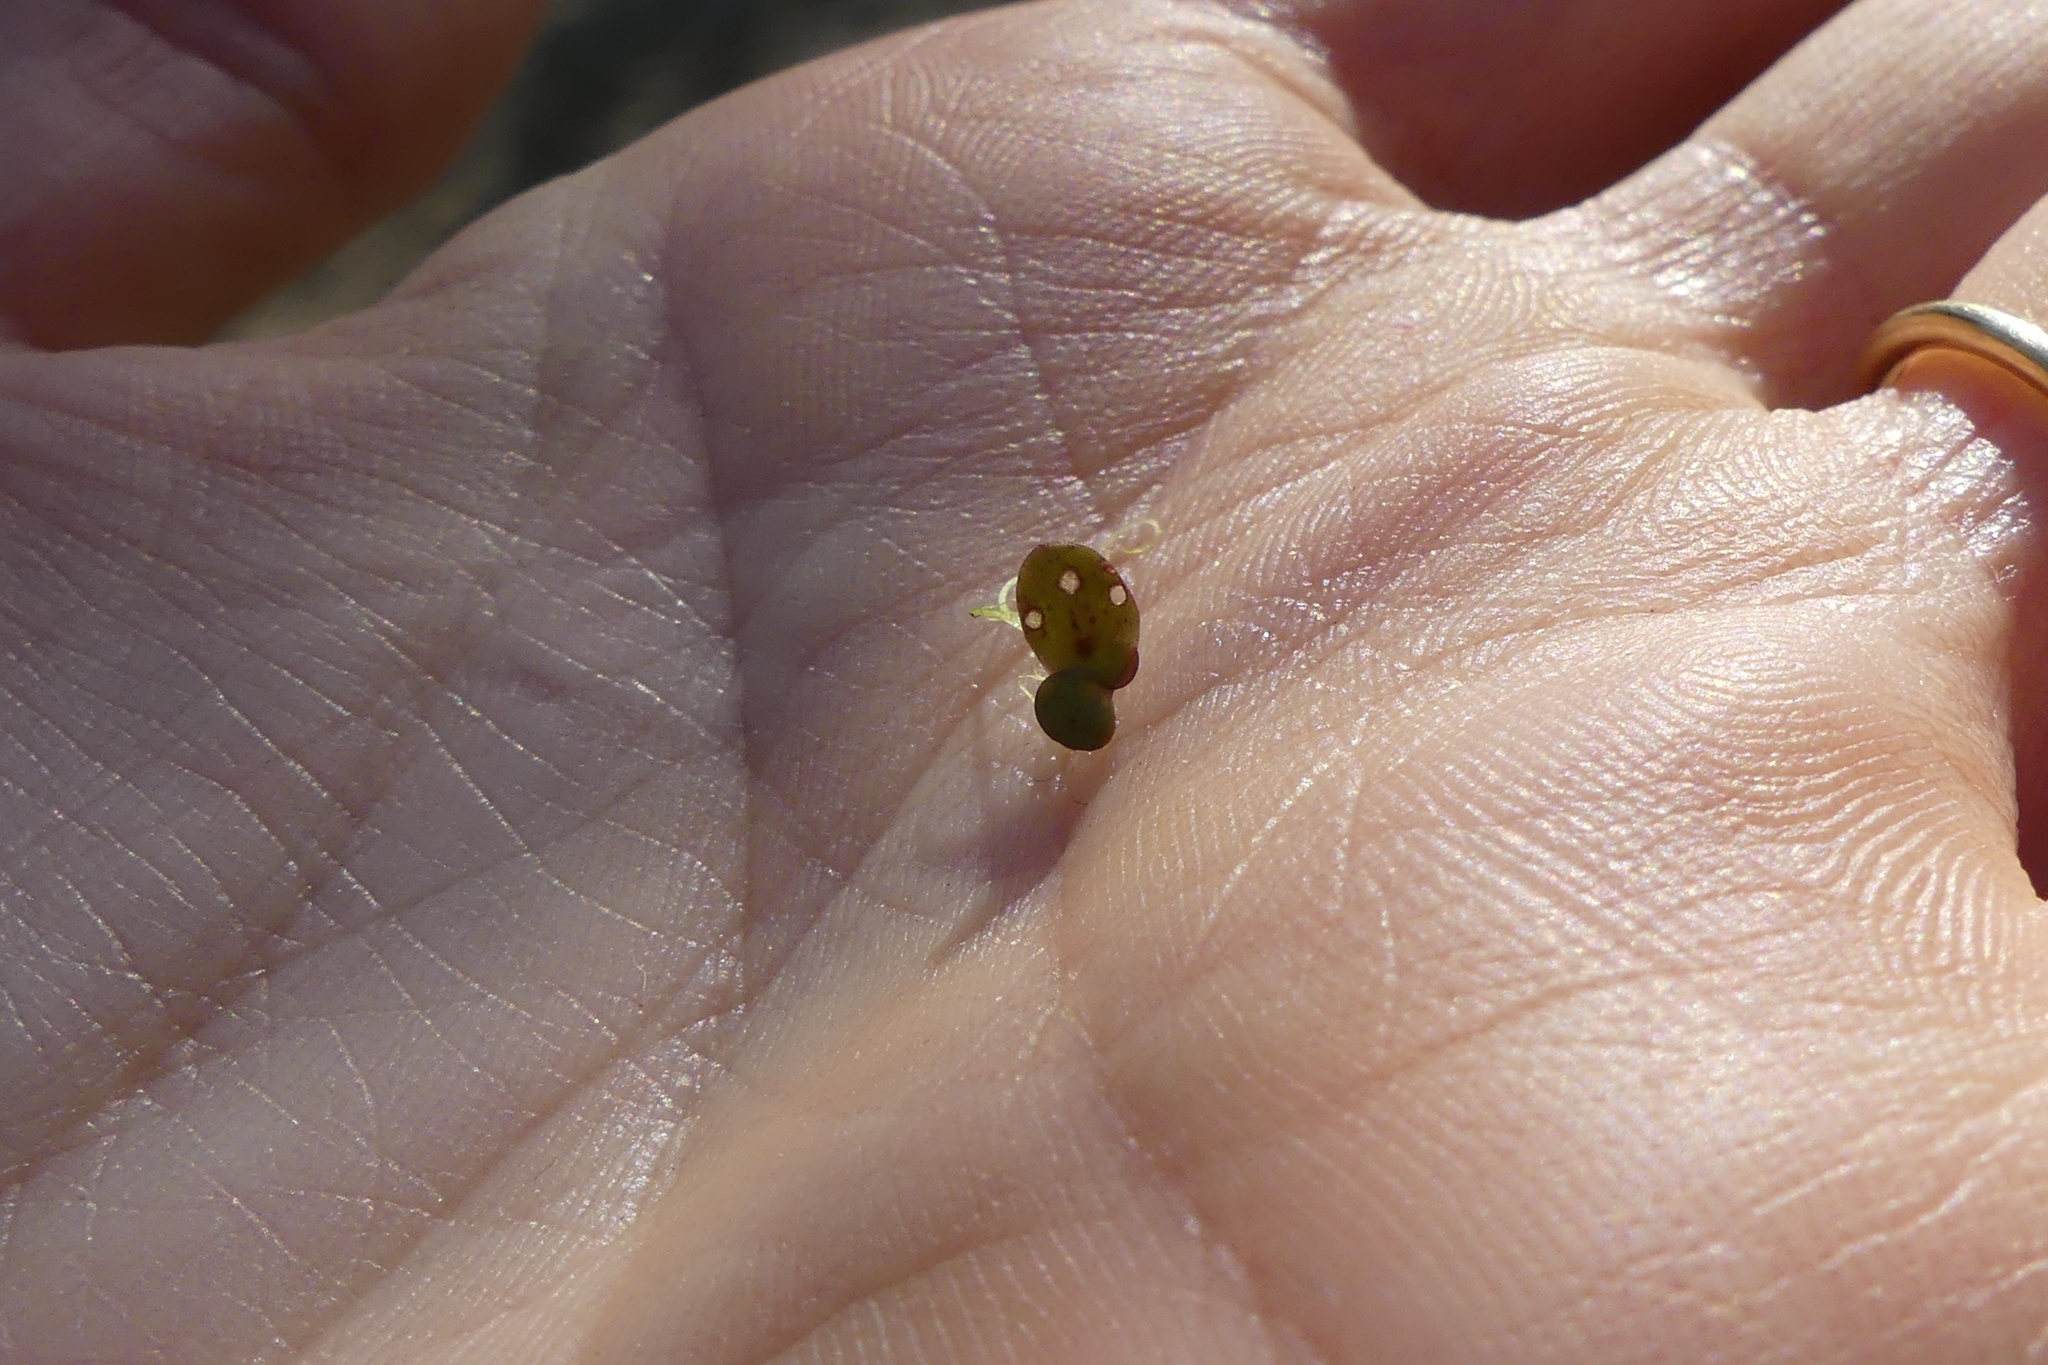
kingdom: Plantae
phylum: Tracheophyta
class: Liliopsida
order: Alismatales
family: Araceae
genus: Lemna
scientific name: Lemna minor
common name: Common duckweed
